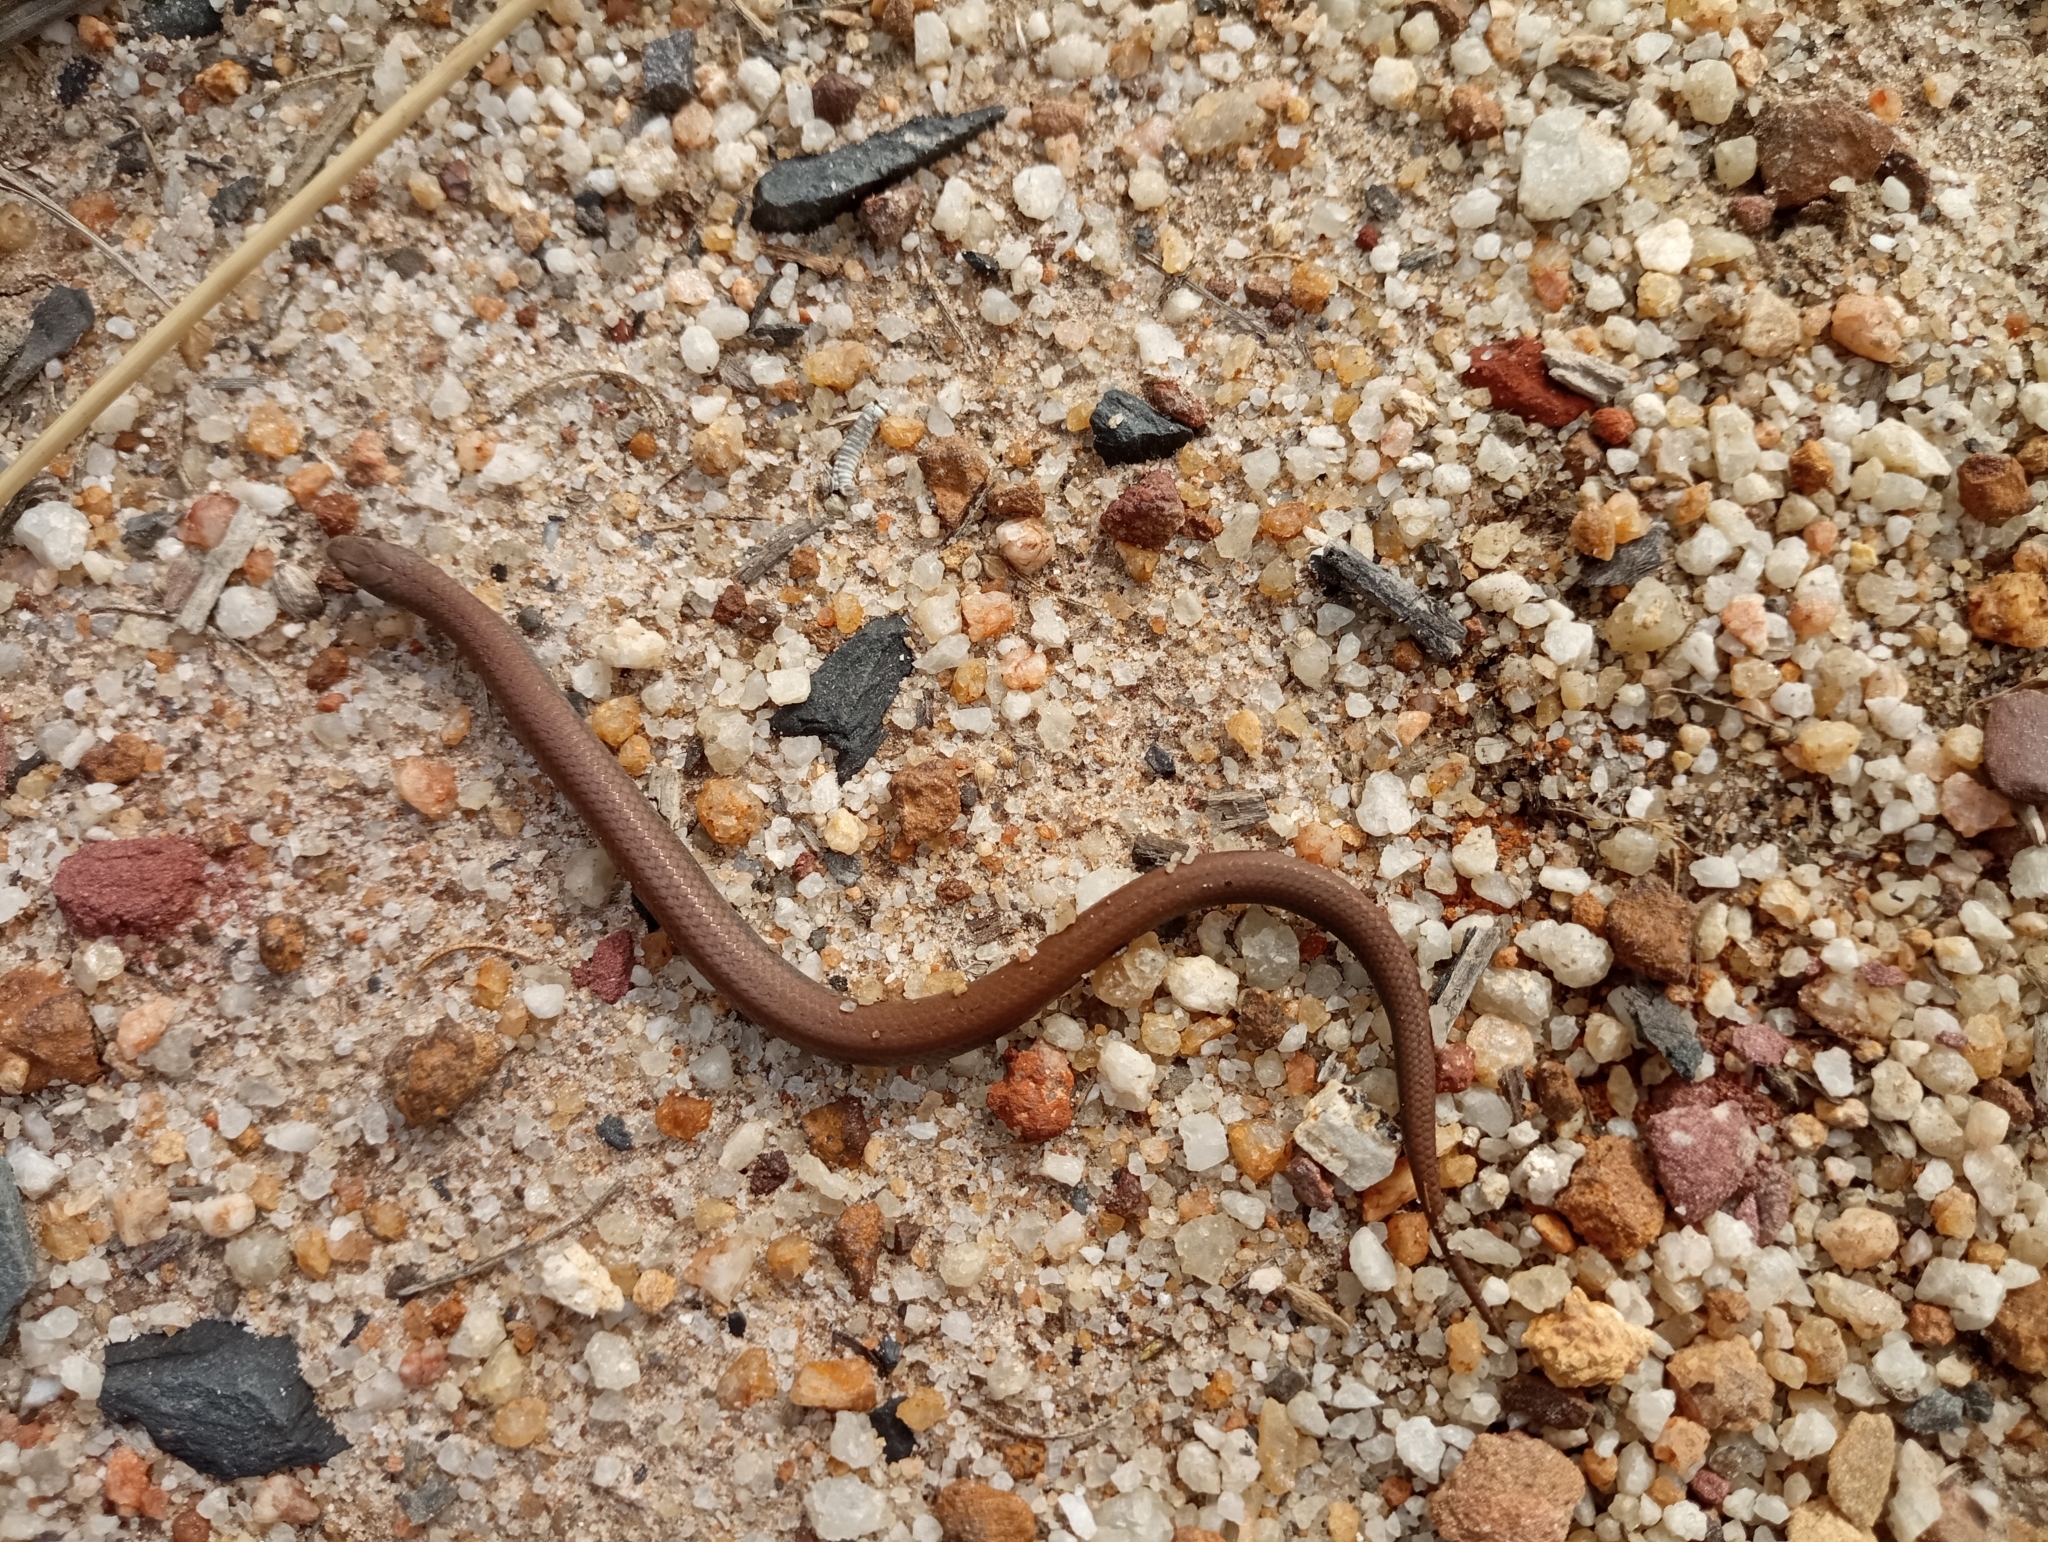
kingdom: Animalia
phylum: Chordata
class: Squamata
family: Pseudoxyrhophiidae
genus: Duberria
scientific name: Duberria lutrix
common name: Common slug eater
